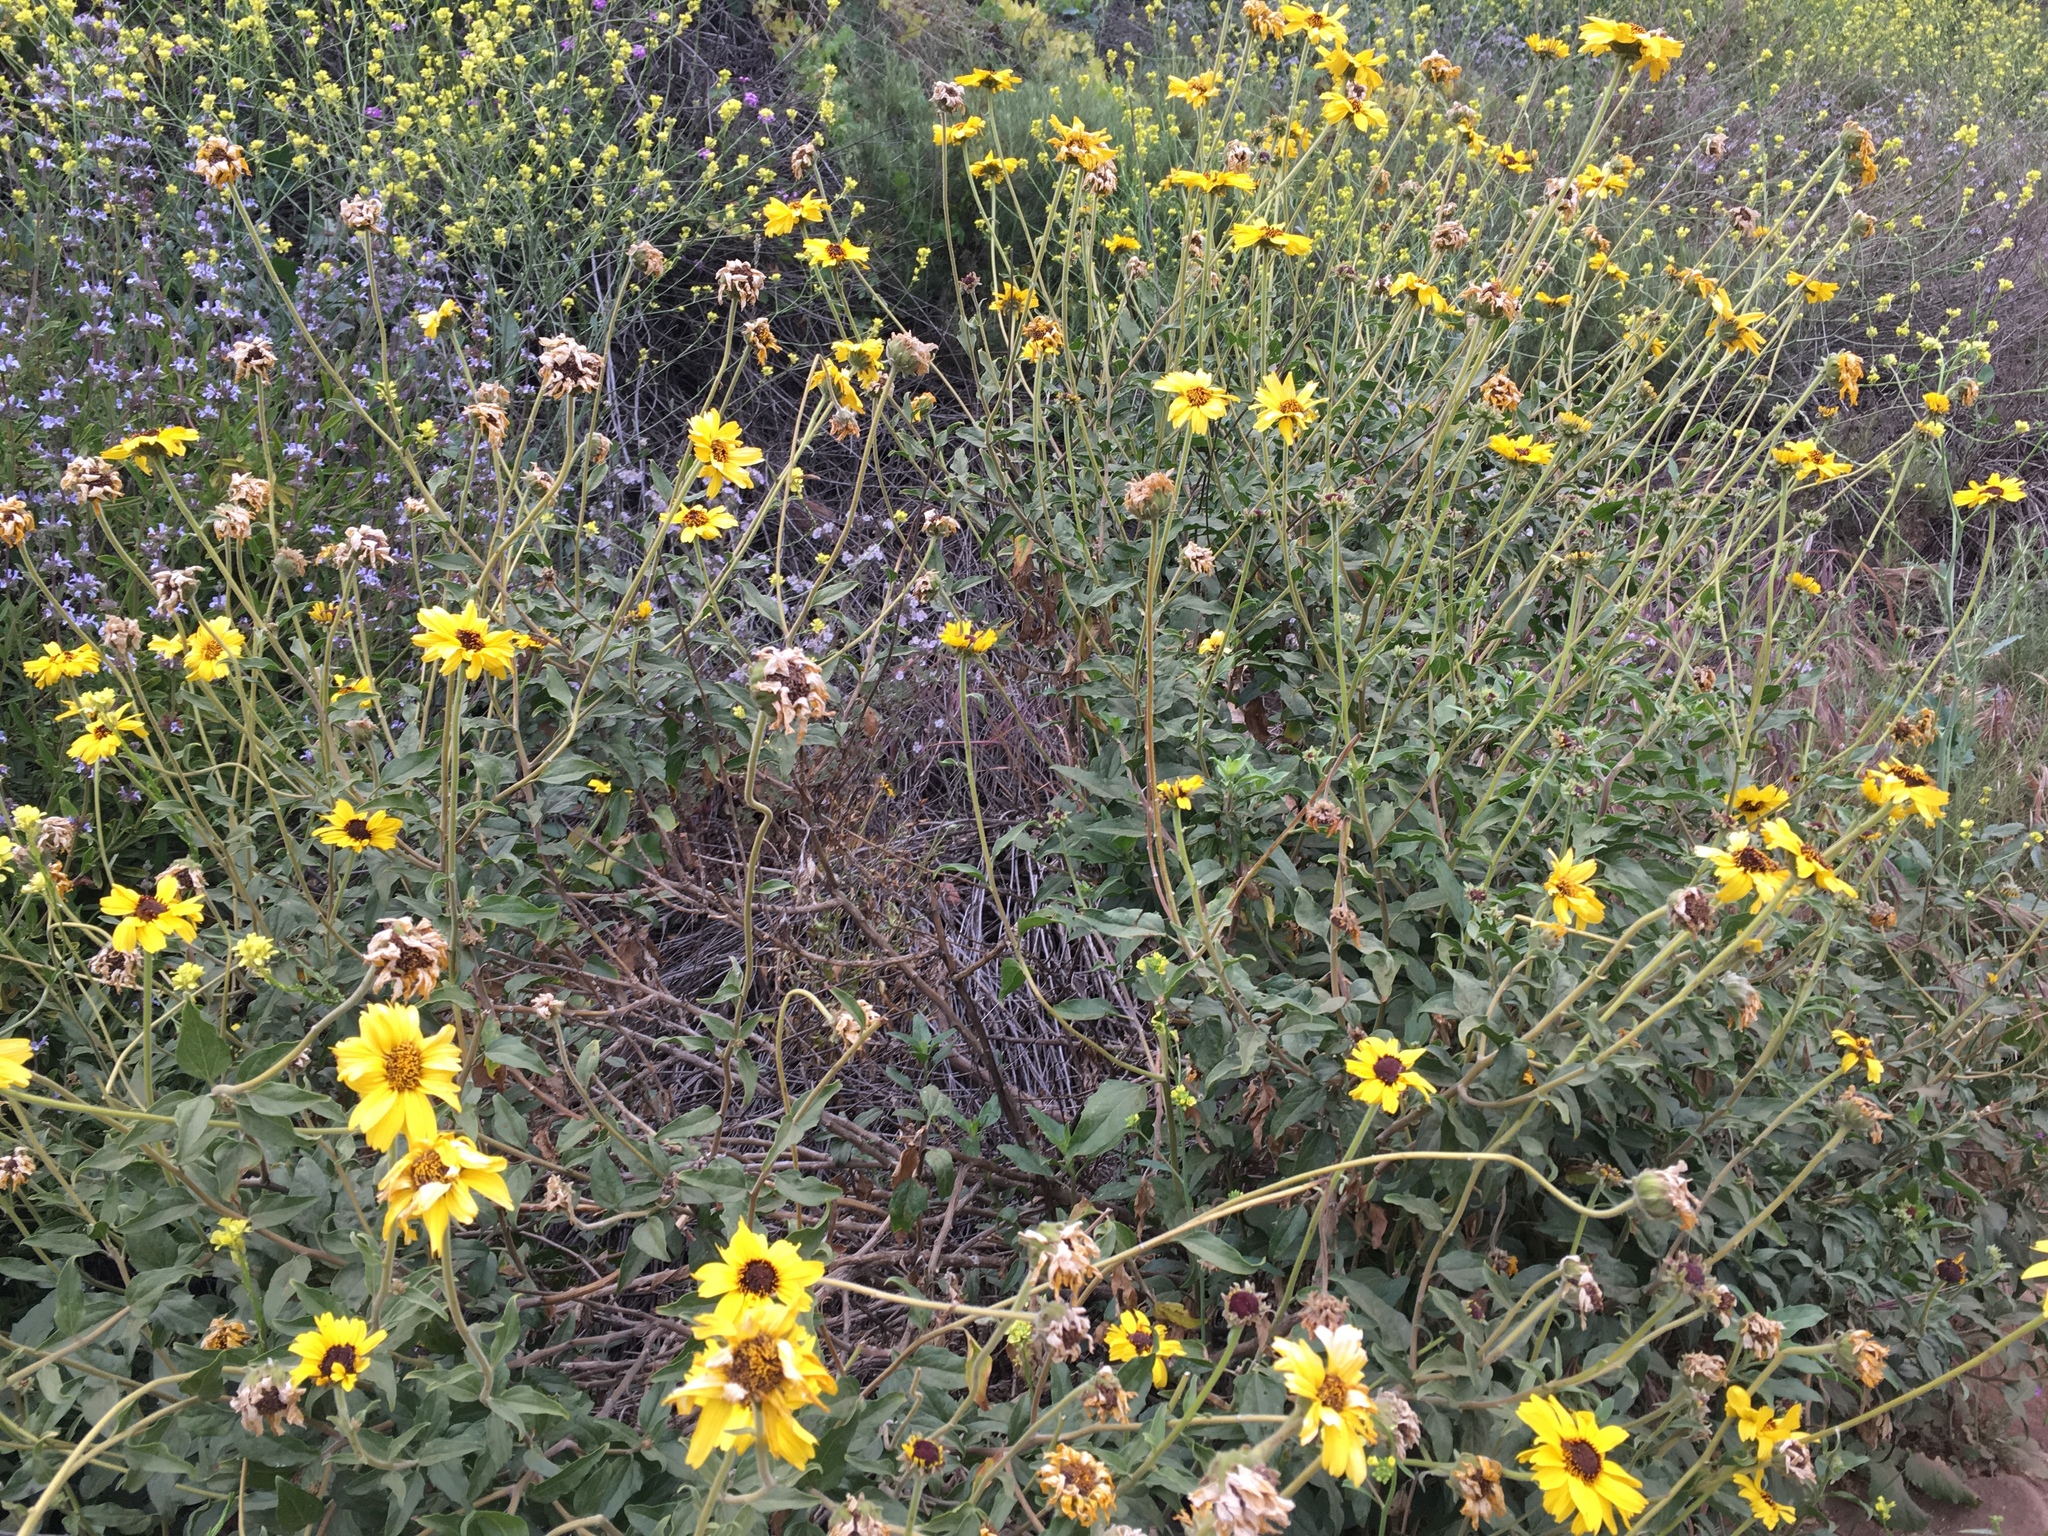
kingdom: Plantae
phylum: Tracheophyta
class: Magnoliopsida
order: Asterales
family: Asteraceae
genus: Encelia
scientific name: Encelia californica
